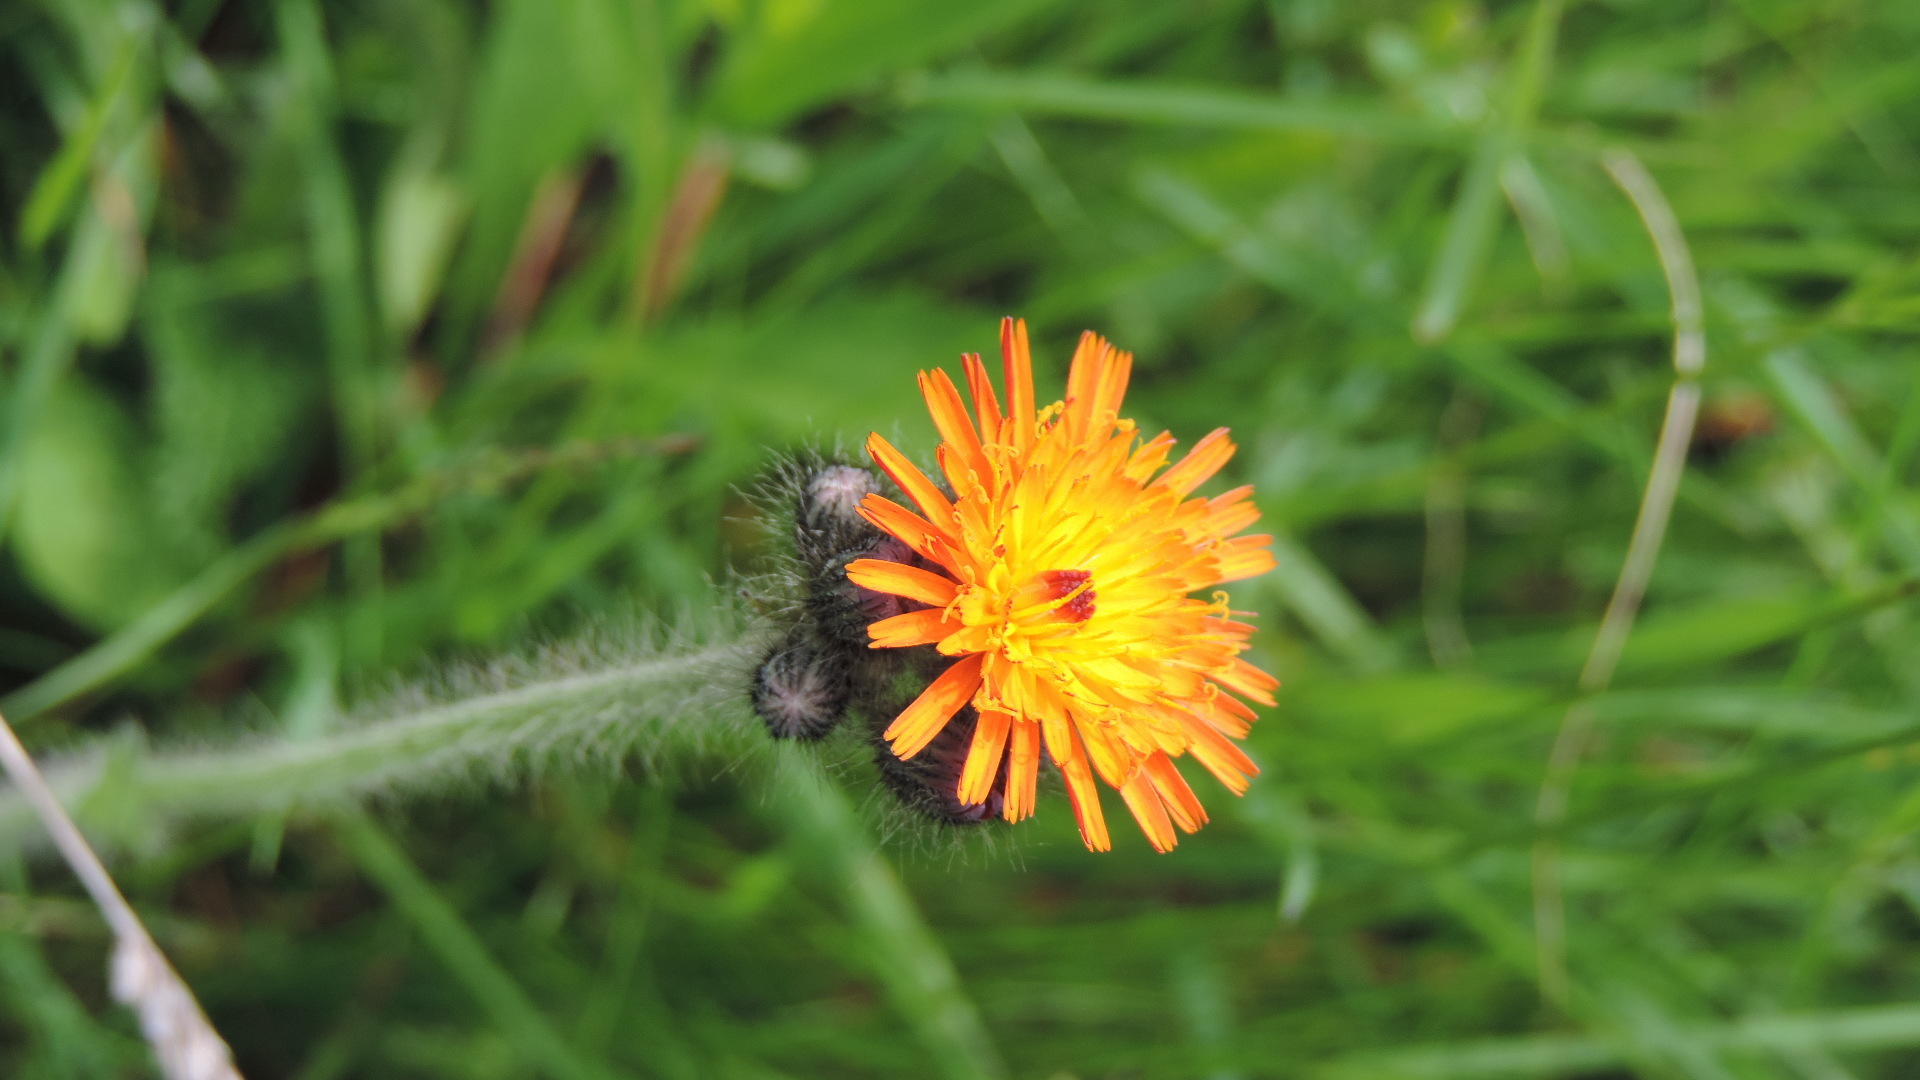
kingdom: Plantae
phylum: Tracheophyta
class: Magnoliopsida
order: Asterales
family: Asteraceae
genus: Pilosella
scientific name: Pilosella aurantiaca
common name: Fox-and-cubs
